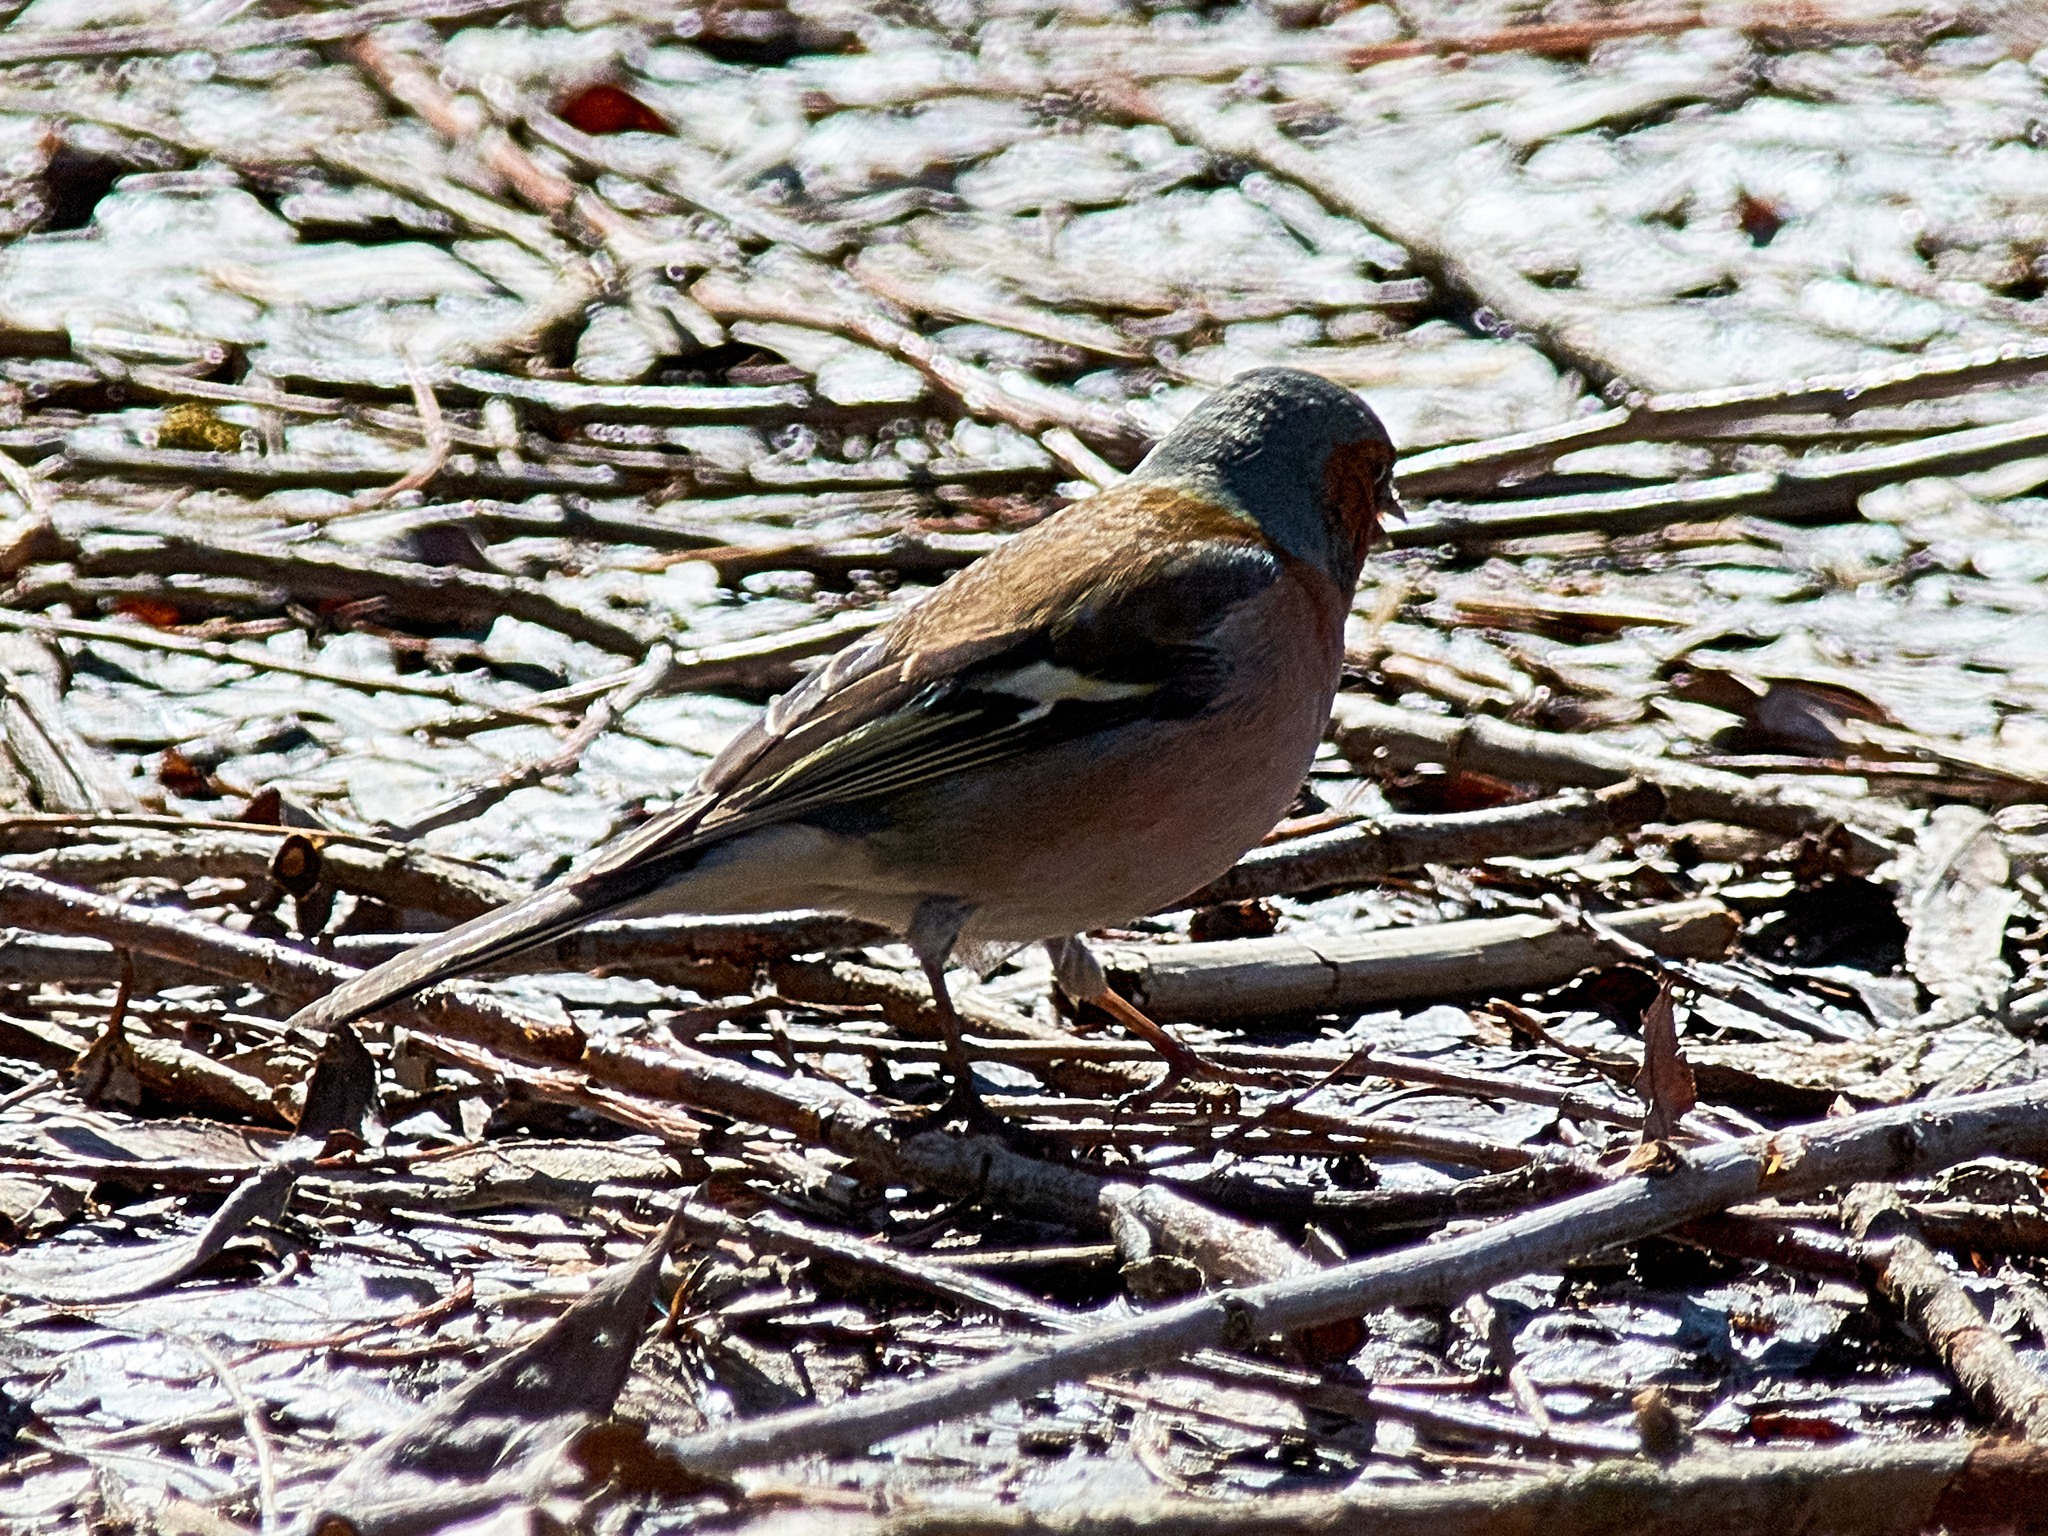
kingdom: Animalia
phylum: Chordata
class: Aves
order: Passeriformes
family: Fringillidae
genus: Fringilla
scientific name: Fringilla coelebs
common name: Common chaffinch
